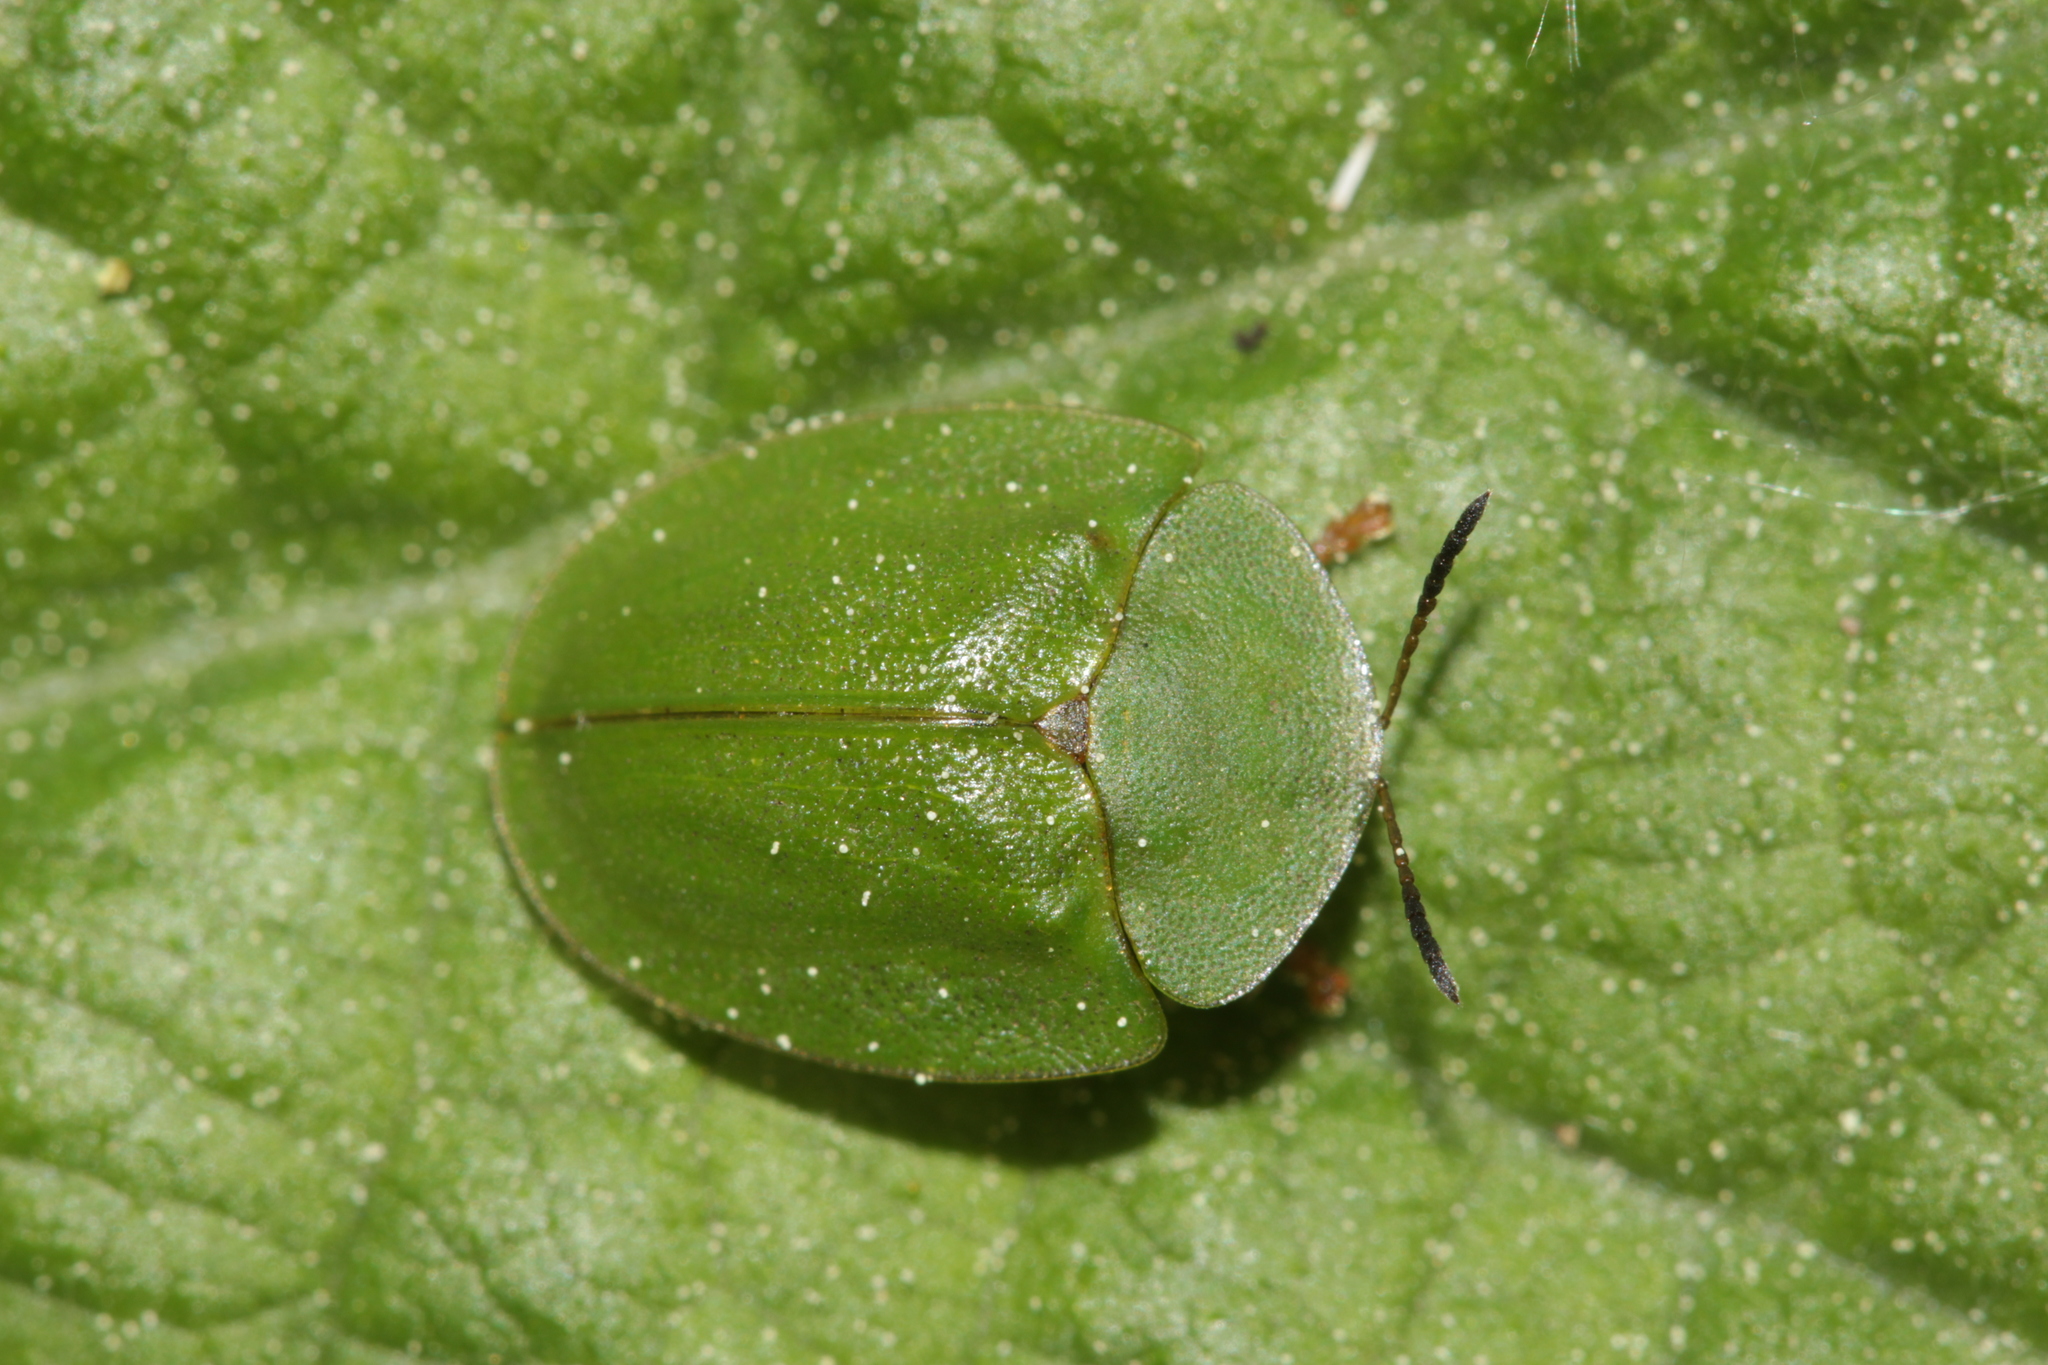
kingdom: Animalia
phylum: Arthropoda
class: Insecta
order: Coleoptera
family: Chrysomelidae
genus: Cassida
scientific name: Cassida viridis
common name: Green tortoise beetle
